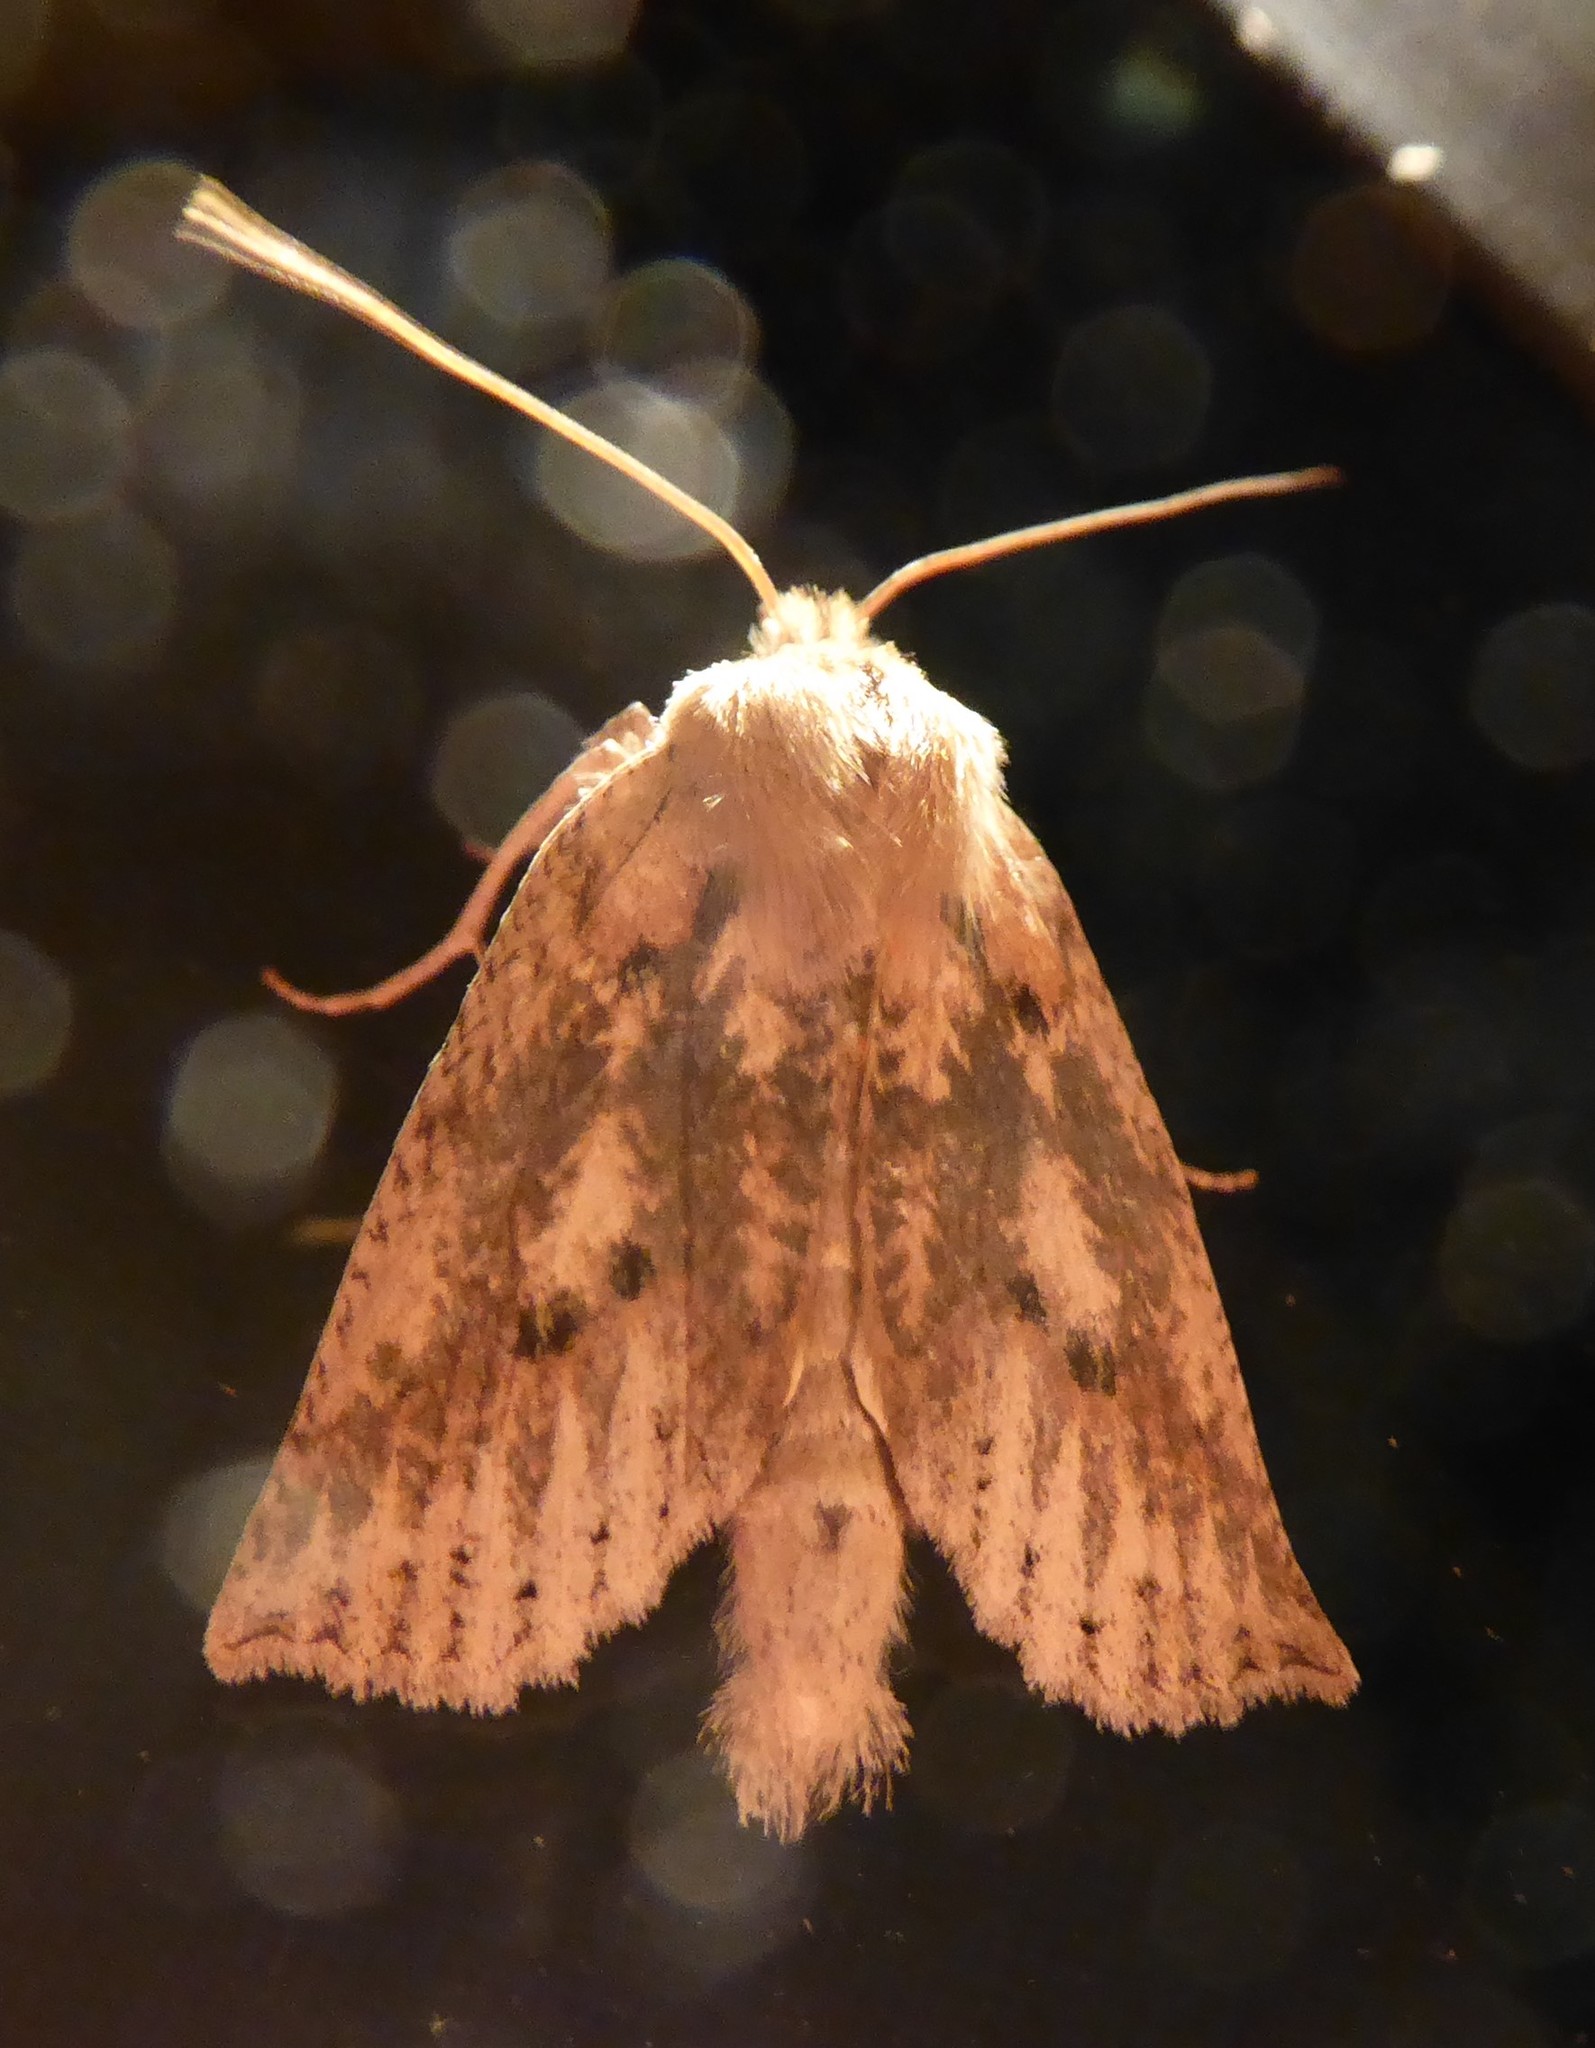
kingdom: Animalia
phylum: Arthropoda
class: Insecta
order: Lepidoptera
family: Geometridae
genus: Declana
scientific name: Declana leptomera
